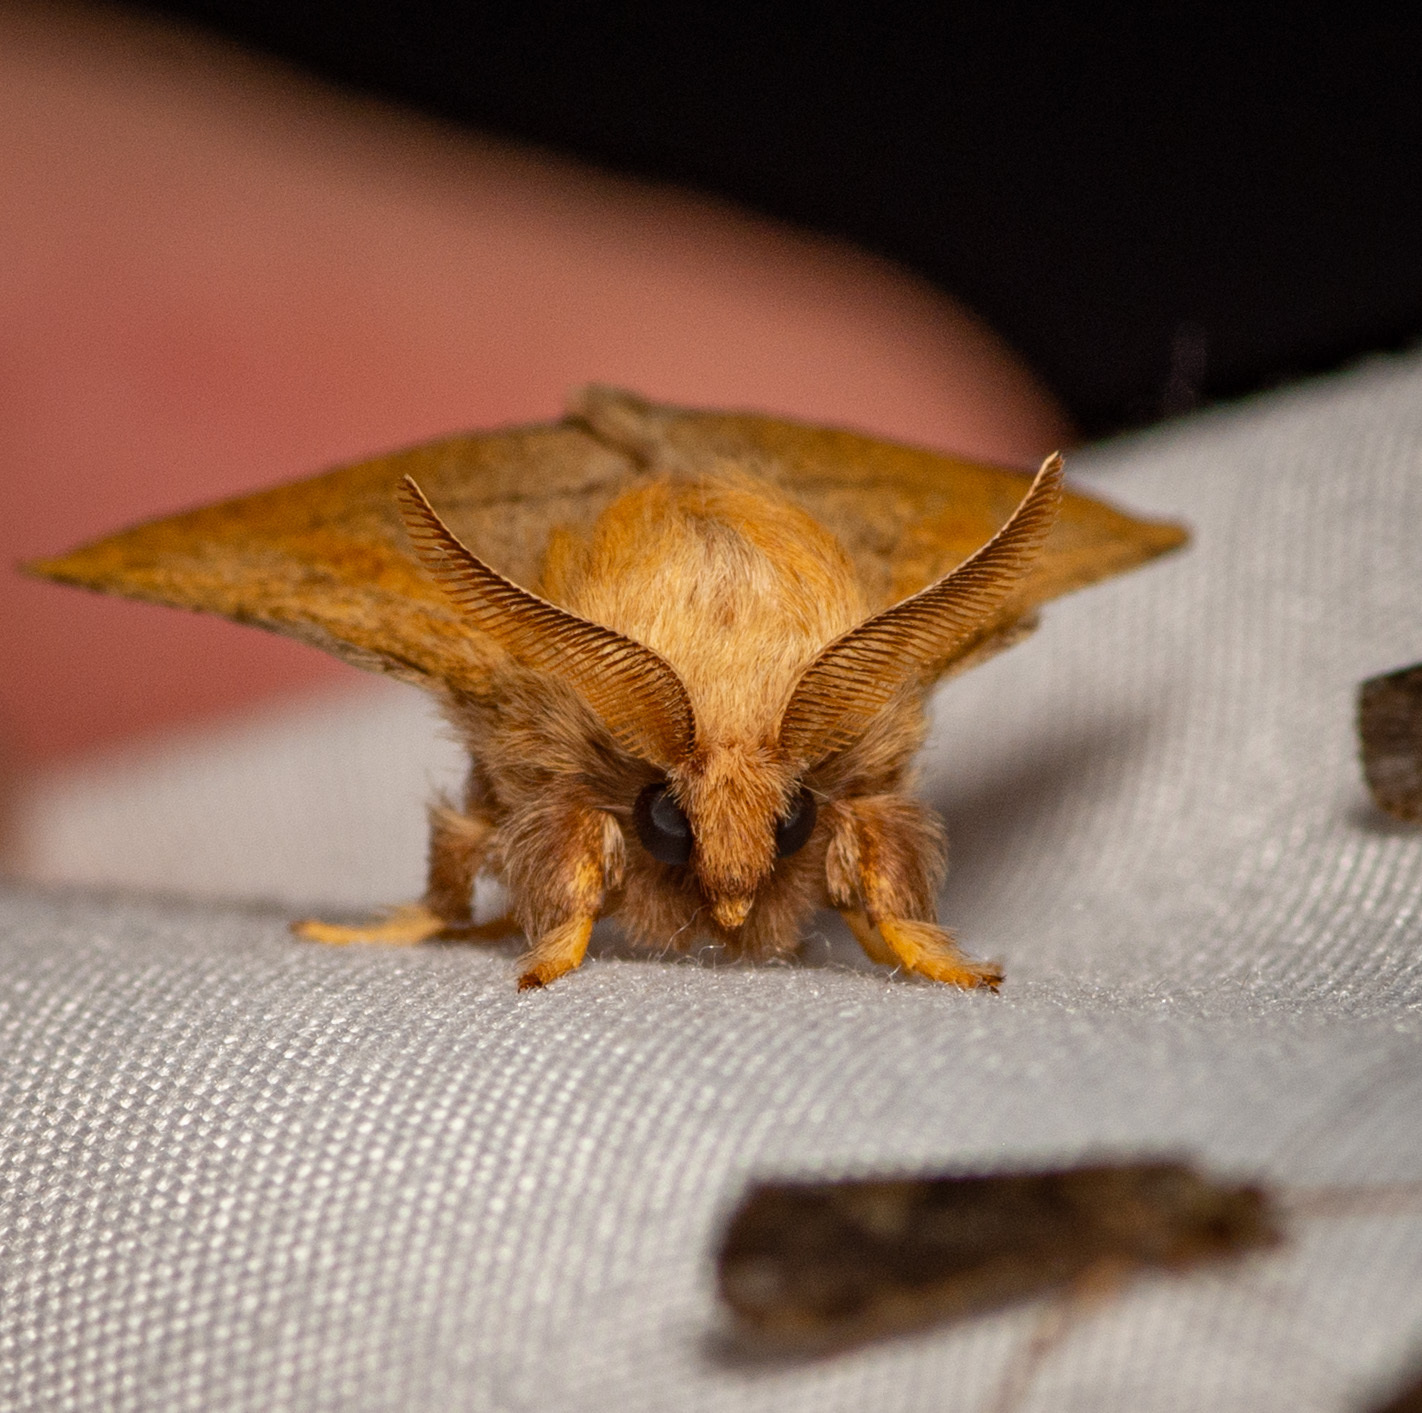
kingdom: Animalia
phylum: Arthropoda
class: Insecta
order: Lepidoptera
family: Lasiocampidae
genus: Malacosoma
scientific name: Malacosoma disstria
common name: Forest tent caterpillar
